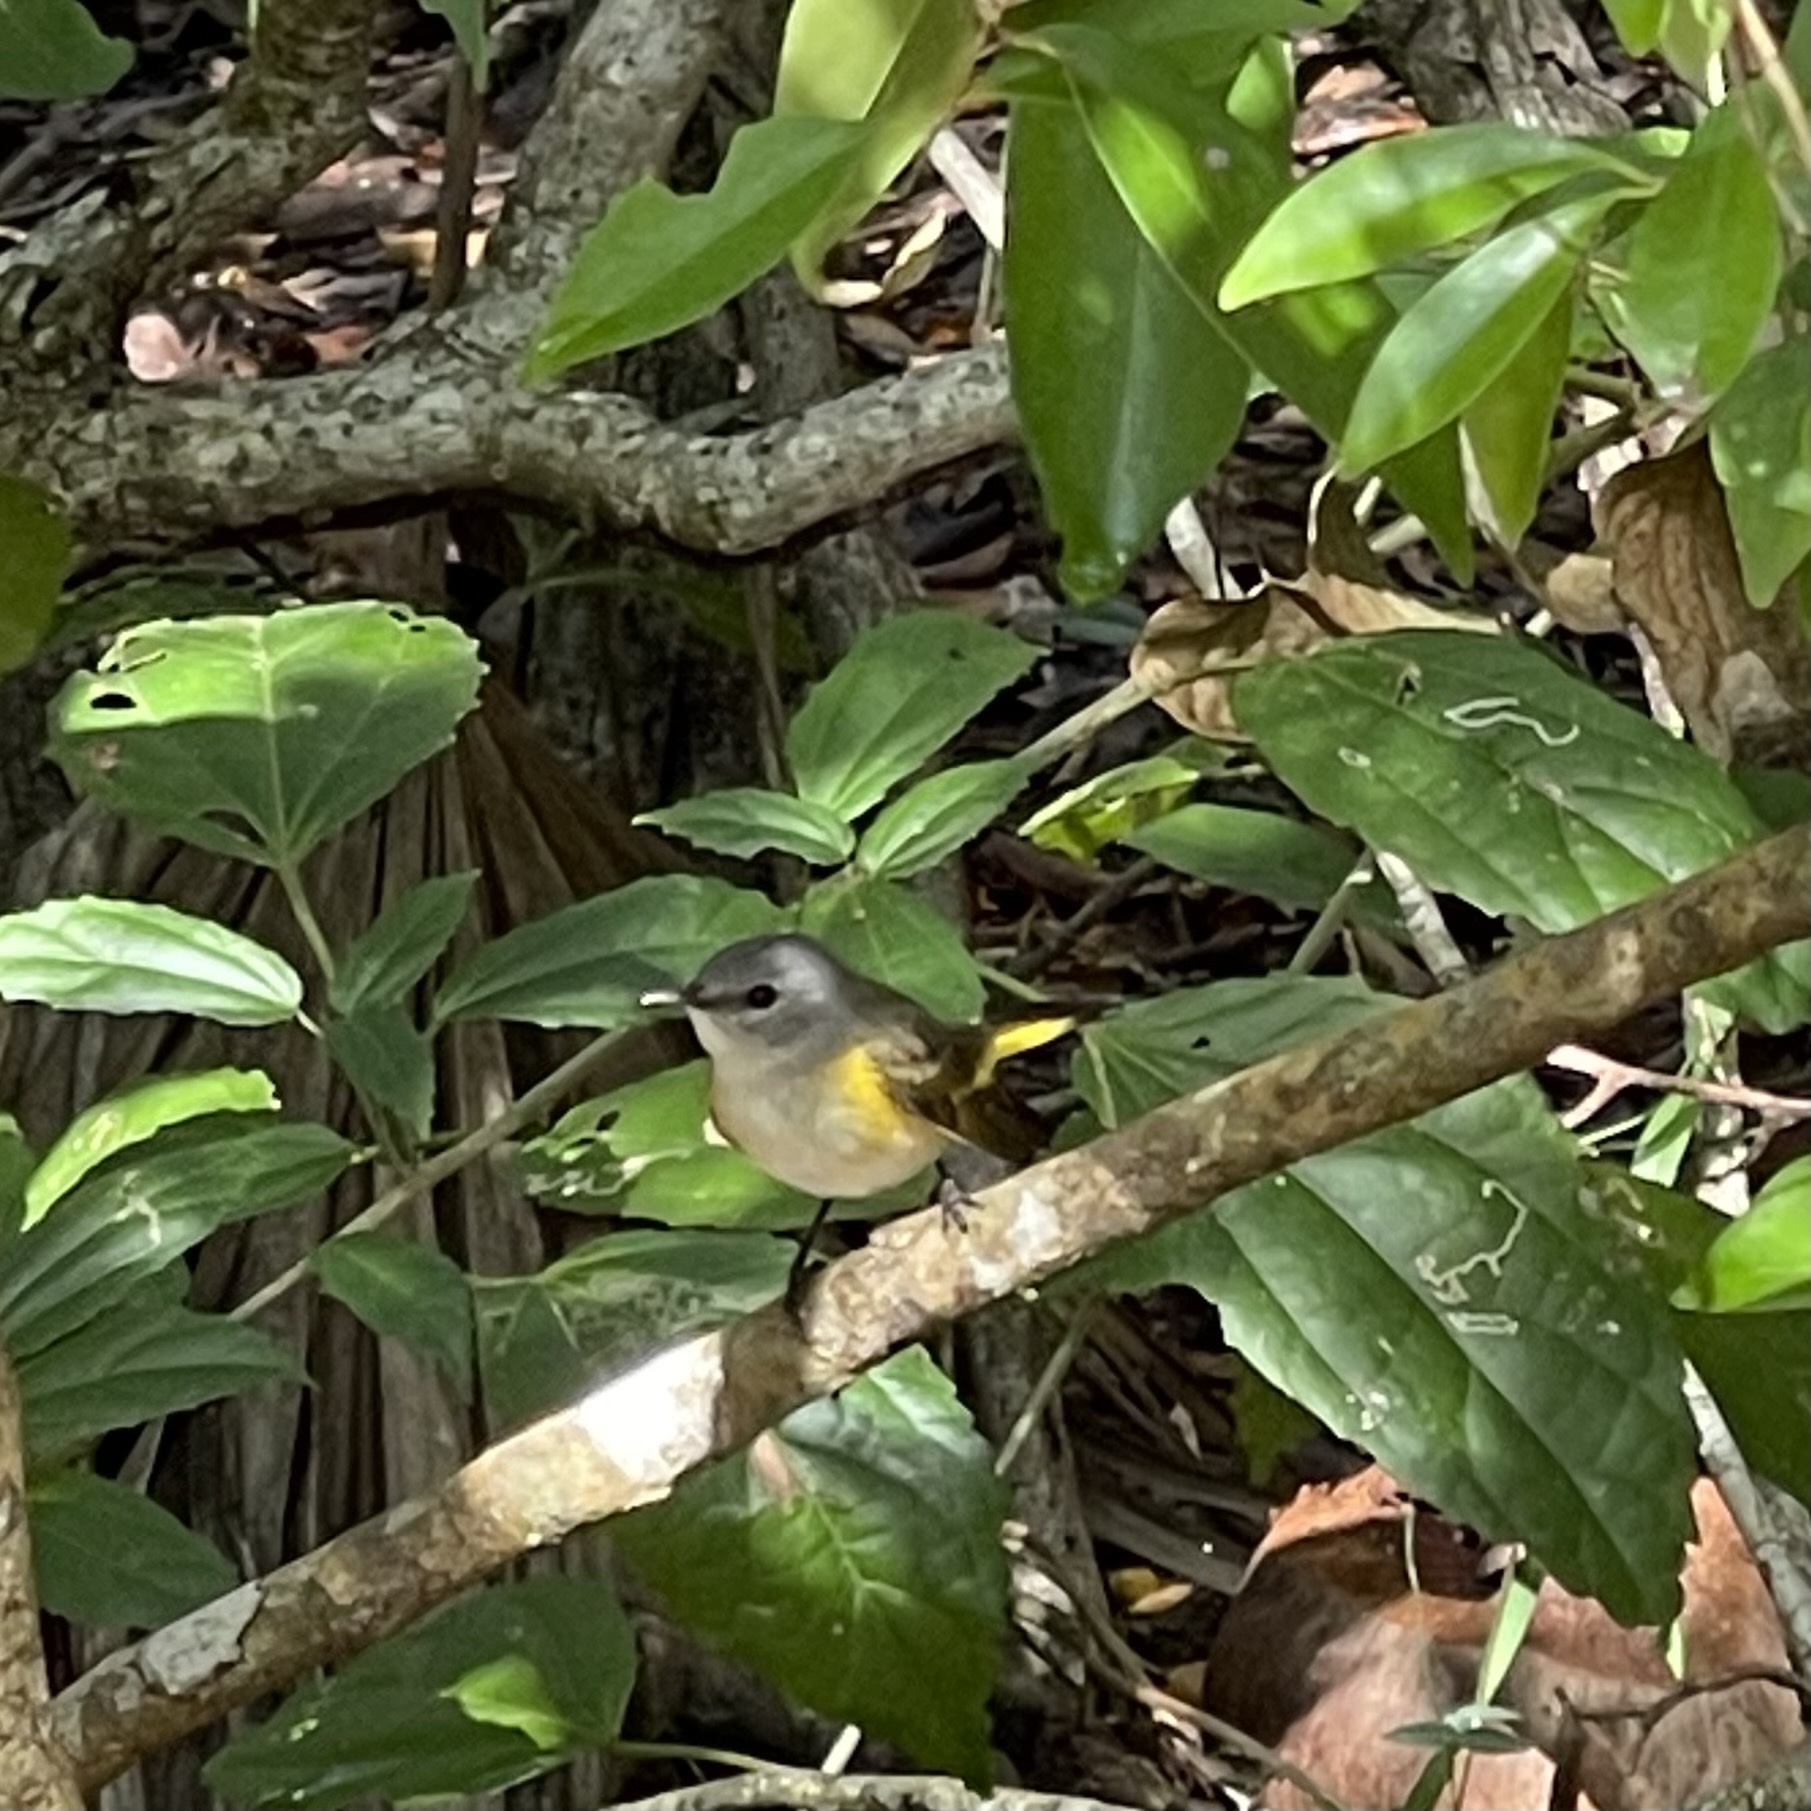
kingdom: Animalia
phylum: Chordata
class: Aves
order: Passeriformes
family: Parulidae
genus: Setophaga
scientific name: Setophaga ruticilla
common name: American redstart
